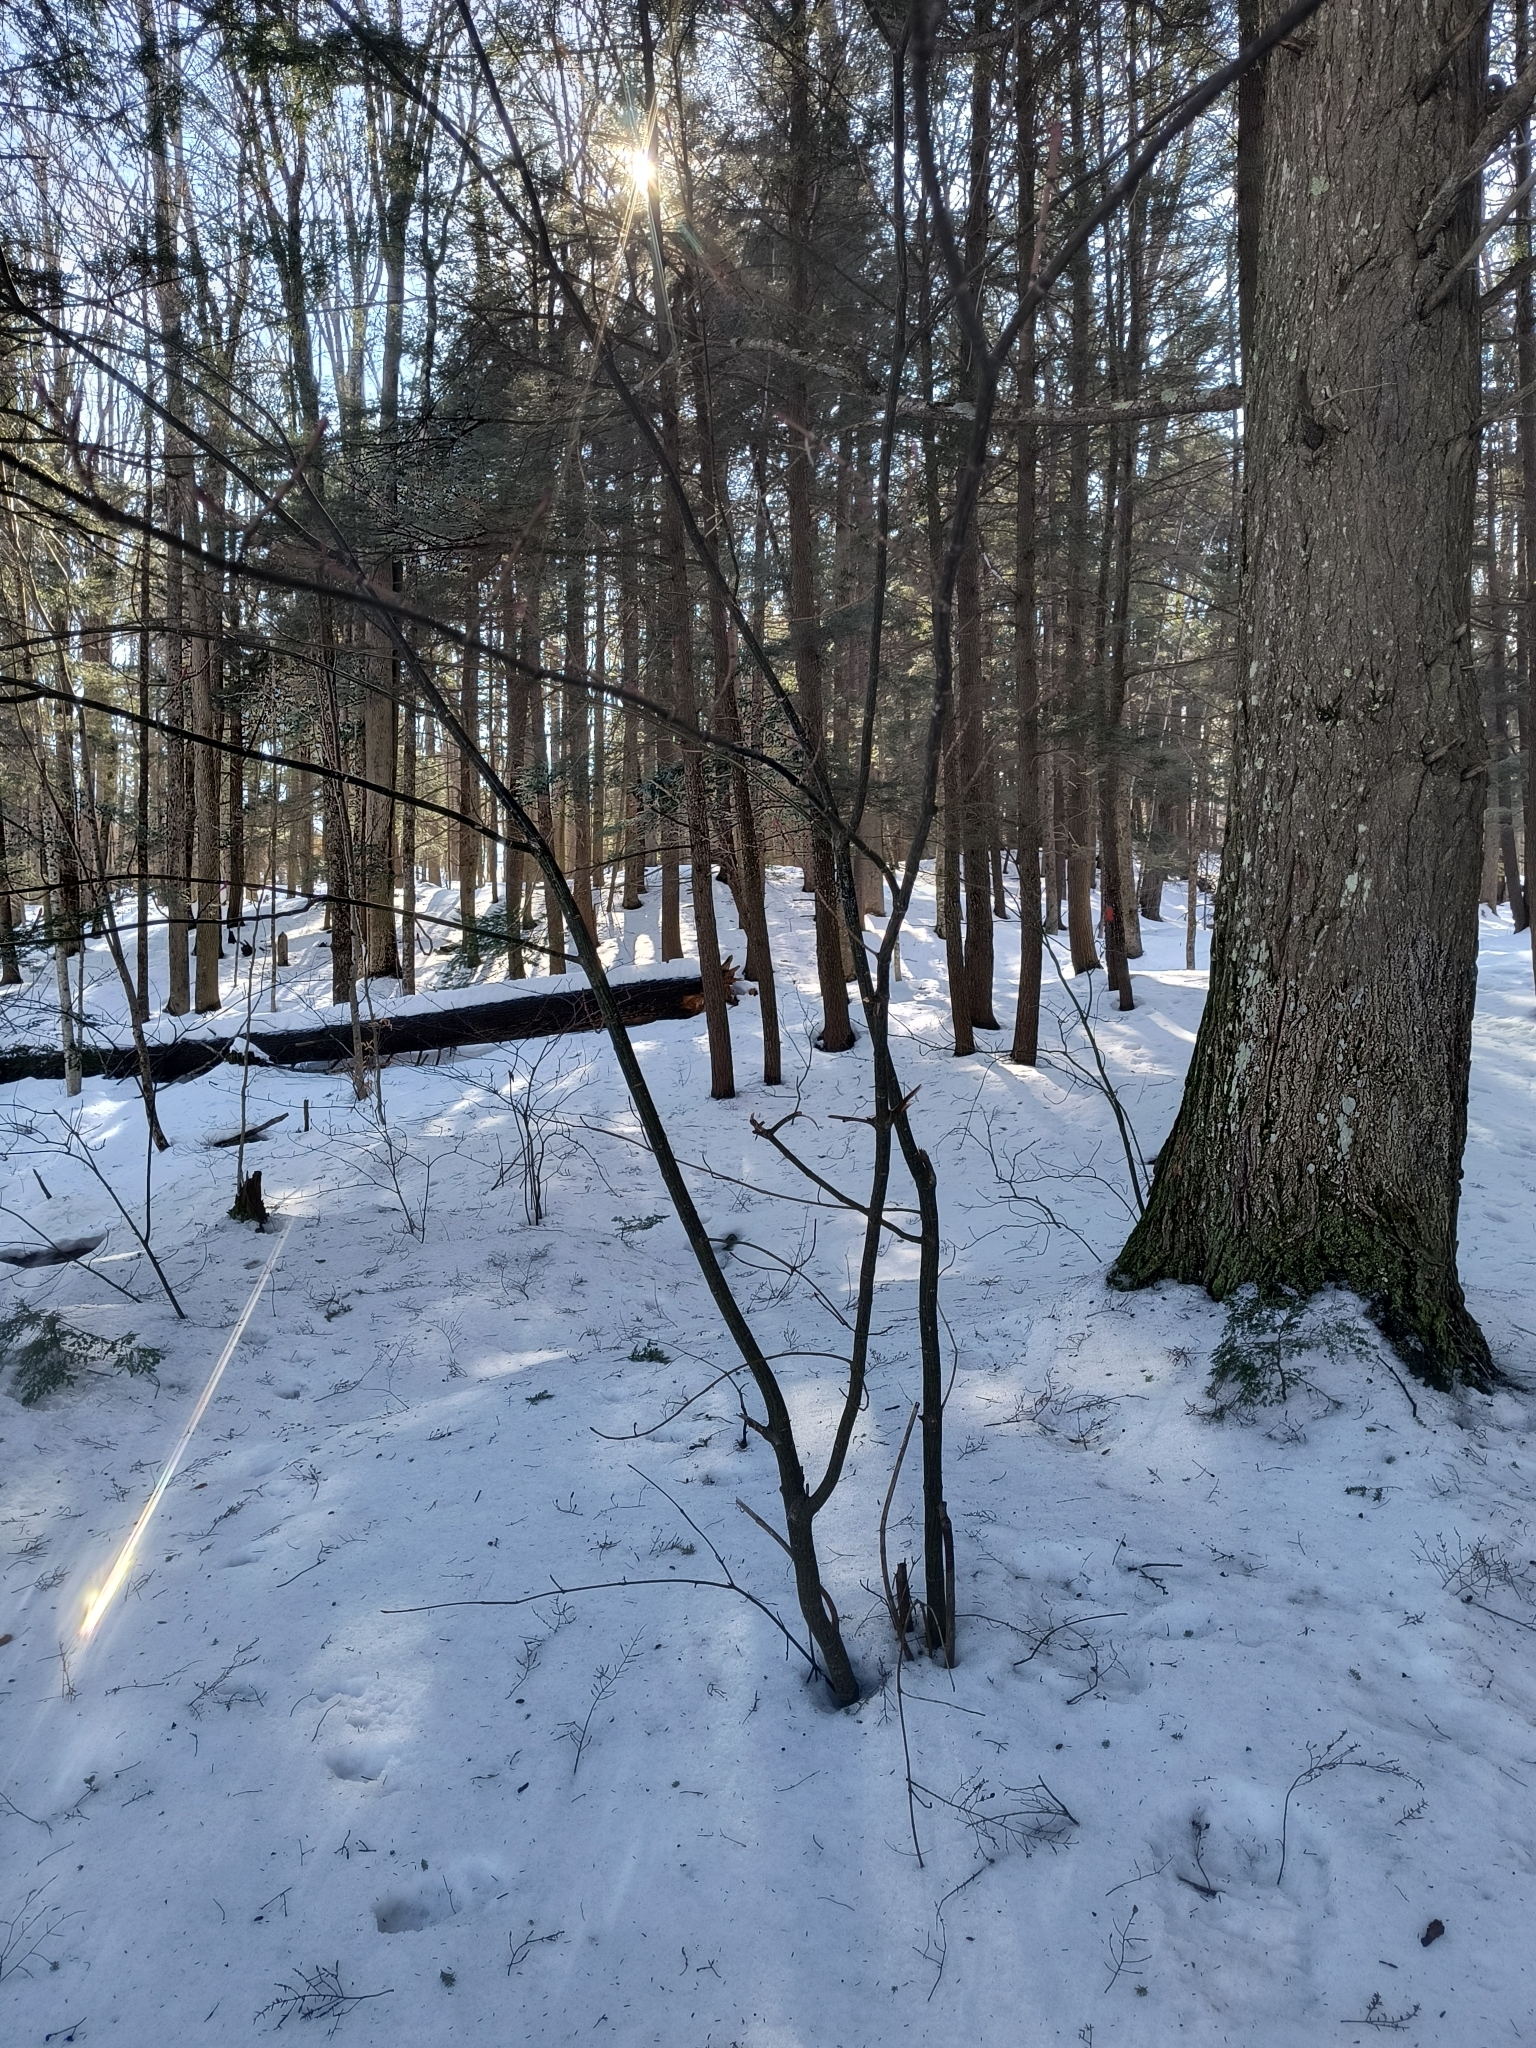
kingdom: Plantae
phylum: Tracheophyta
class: Magnoliopsida
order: Sapindales
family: Sapindaceae
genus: Acer
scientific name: Acer pensylvanicum
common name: Moosewood
